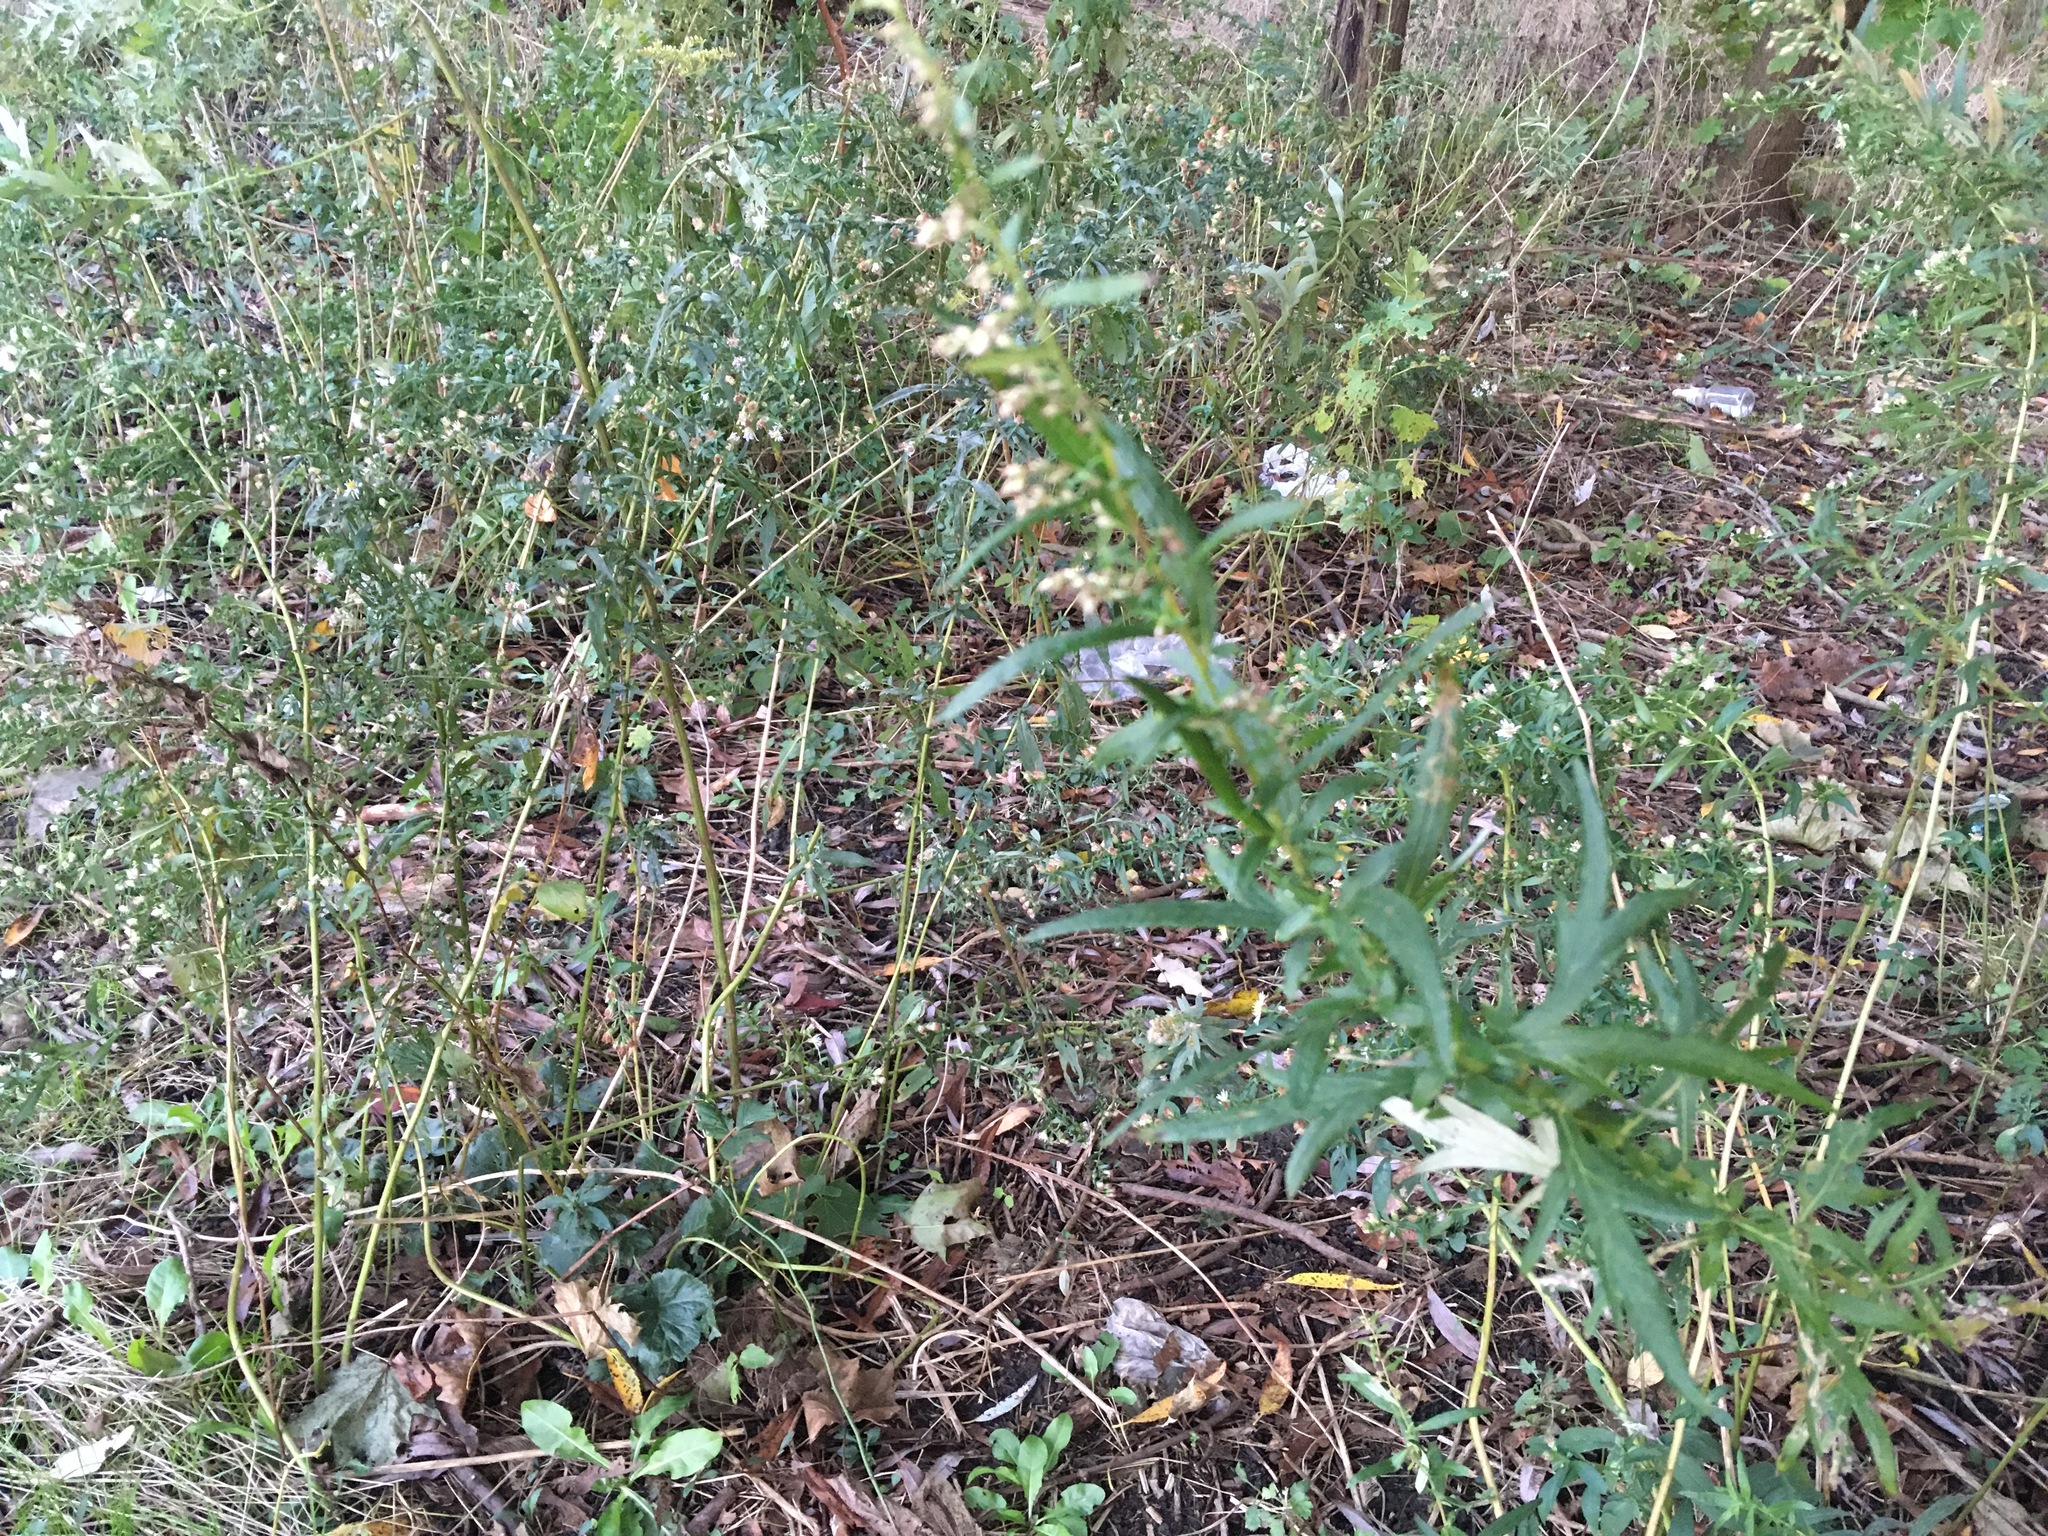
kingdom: Plantae
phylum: Tracheophyta
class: Magnoliopsida
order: Asterales
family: Asteraceae
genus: Artemisia
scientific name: Artemisia vulgaris
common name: Mugwort
